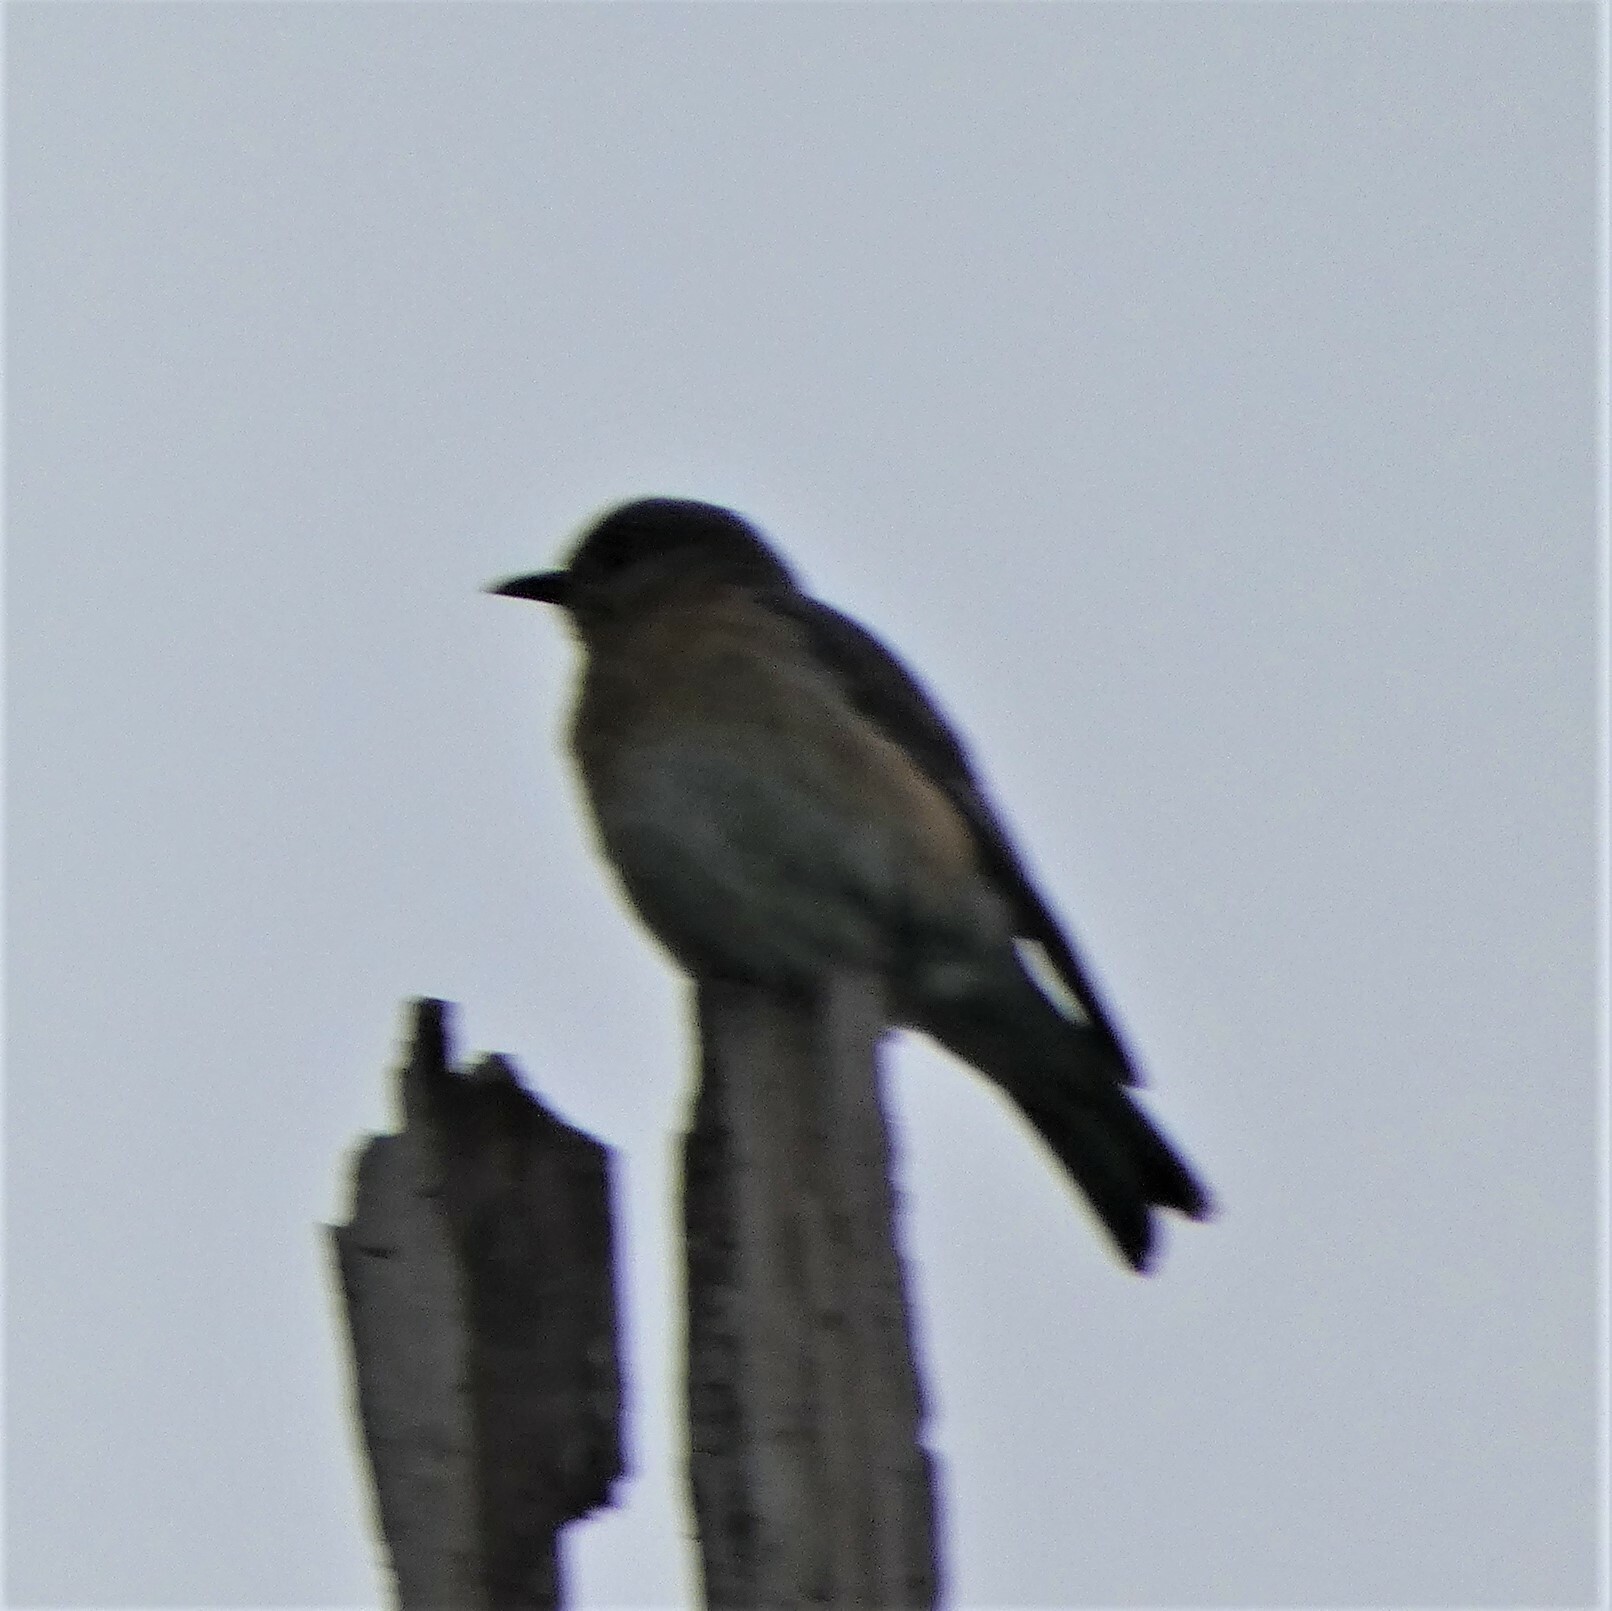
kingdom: Animalia
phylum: Chordata
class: Aves
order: Passeriformes
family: Turdidae
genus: Sialia
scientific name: Sialia sialis
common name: Eastern bluebird
